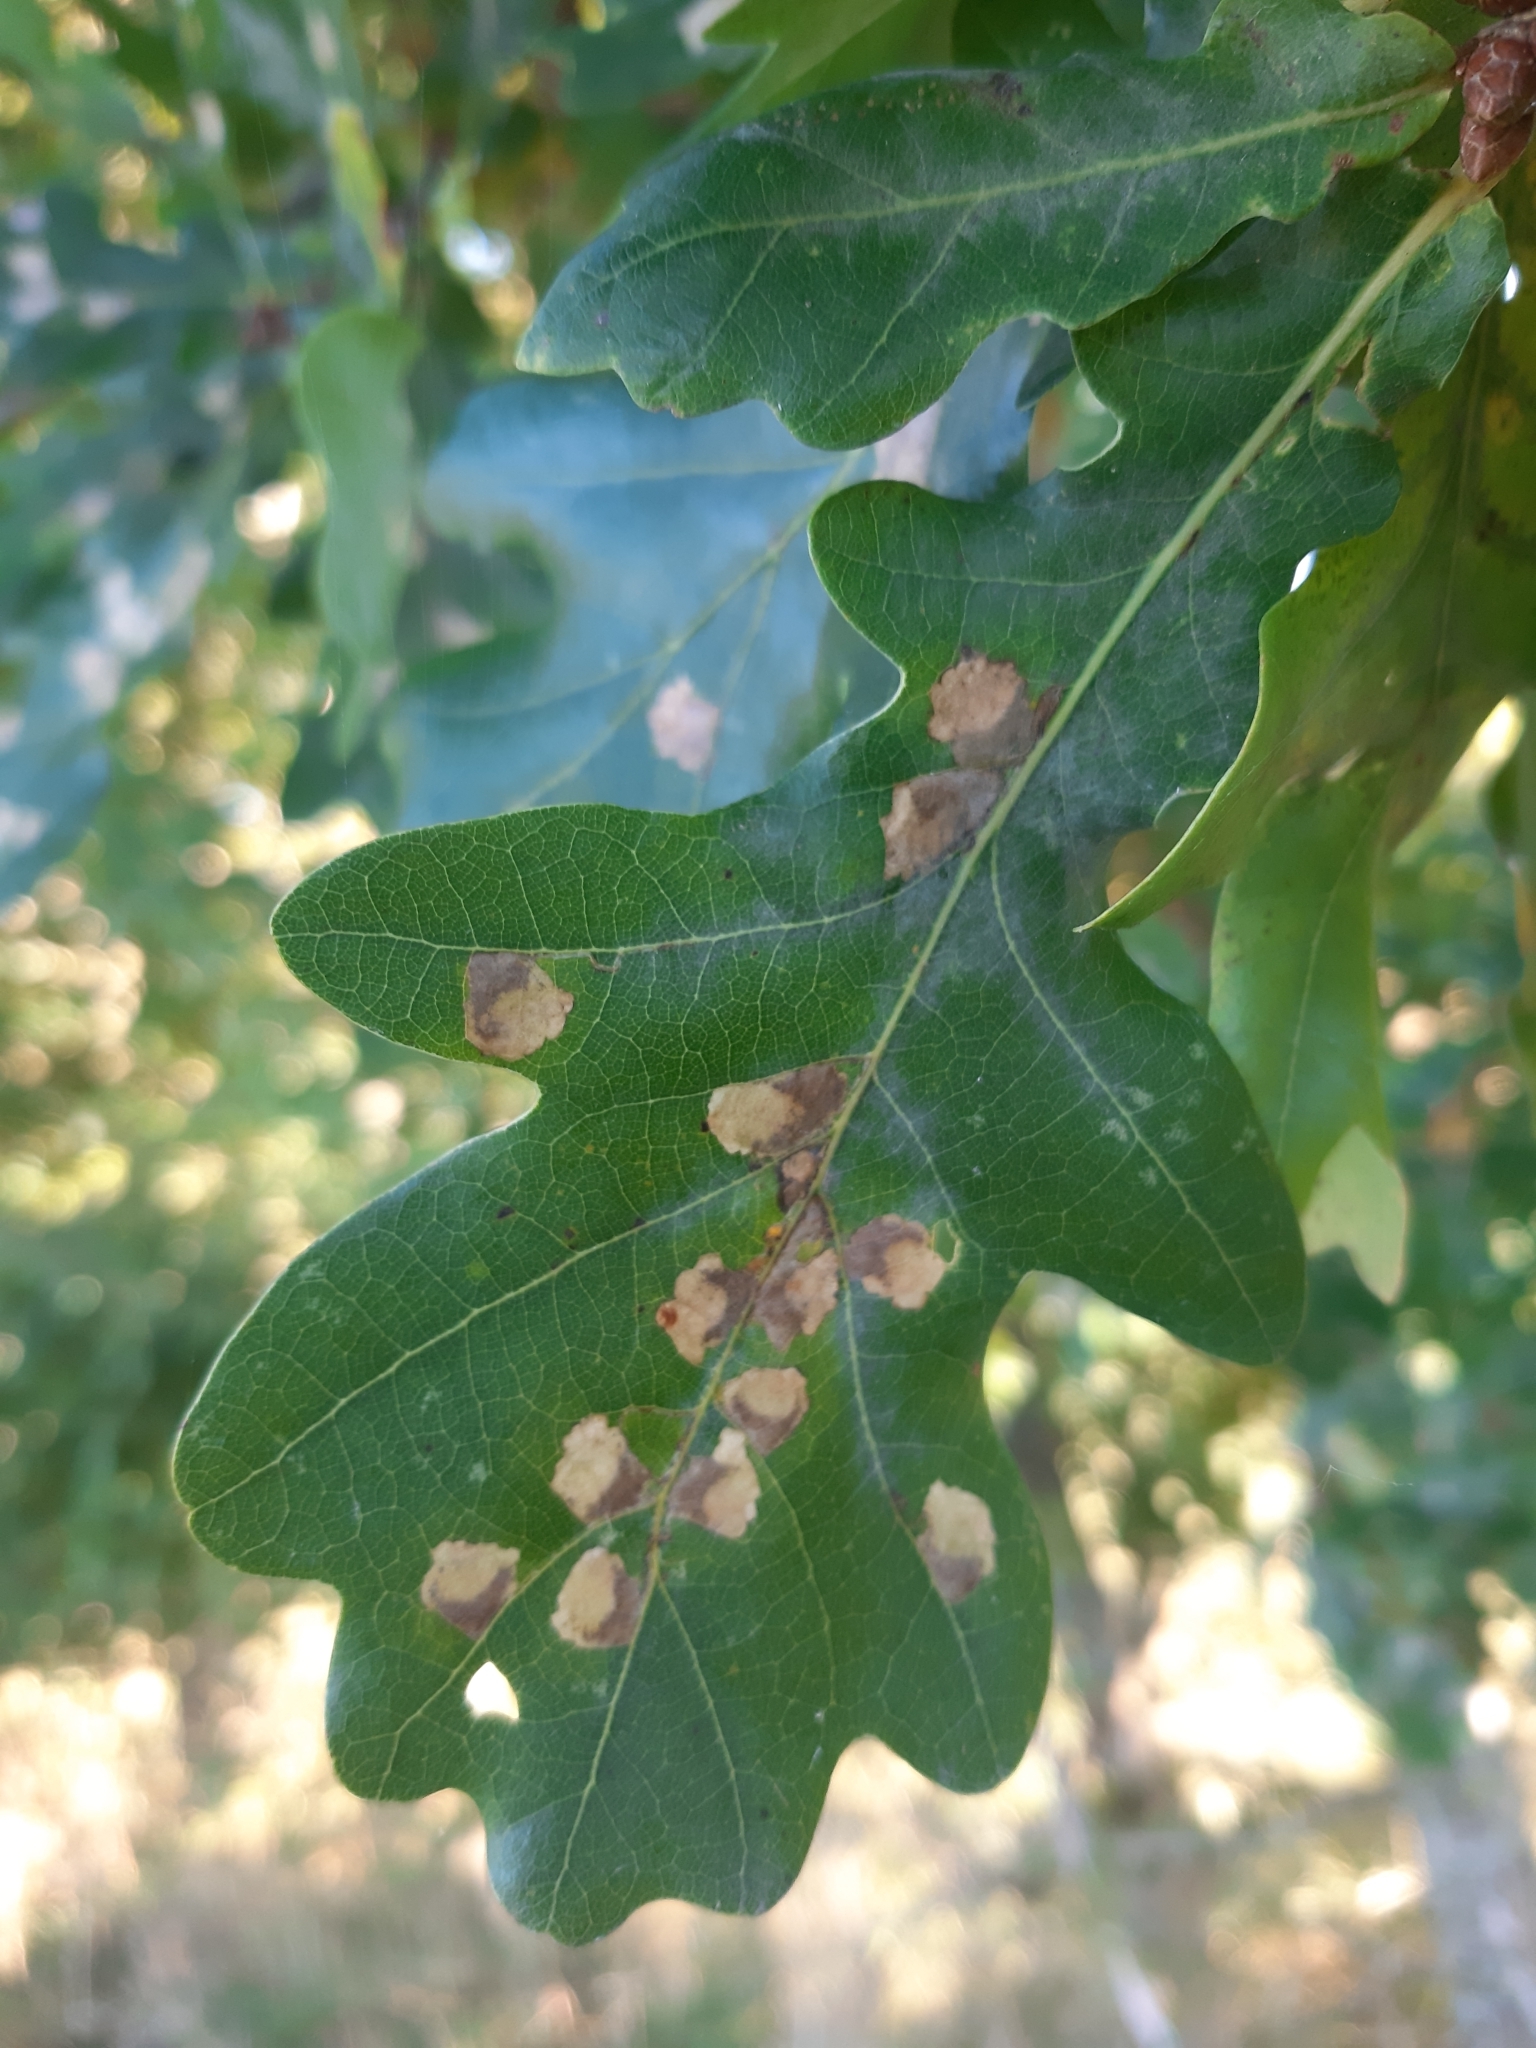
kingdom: Plantae
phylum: Tracheophyta
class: Magnoliopsida
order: Fagales
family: Fagaceae
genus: Quercus
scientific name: Quercus robur
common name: Pedunculate oak
